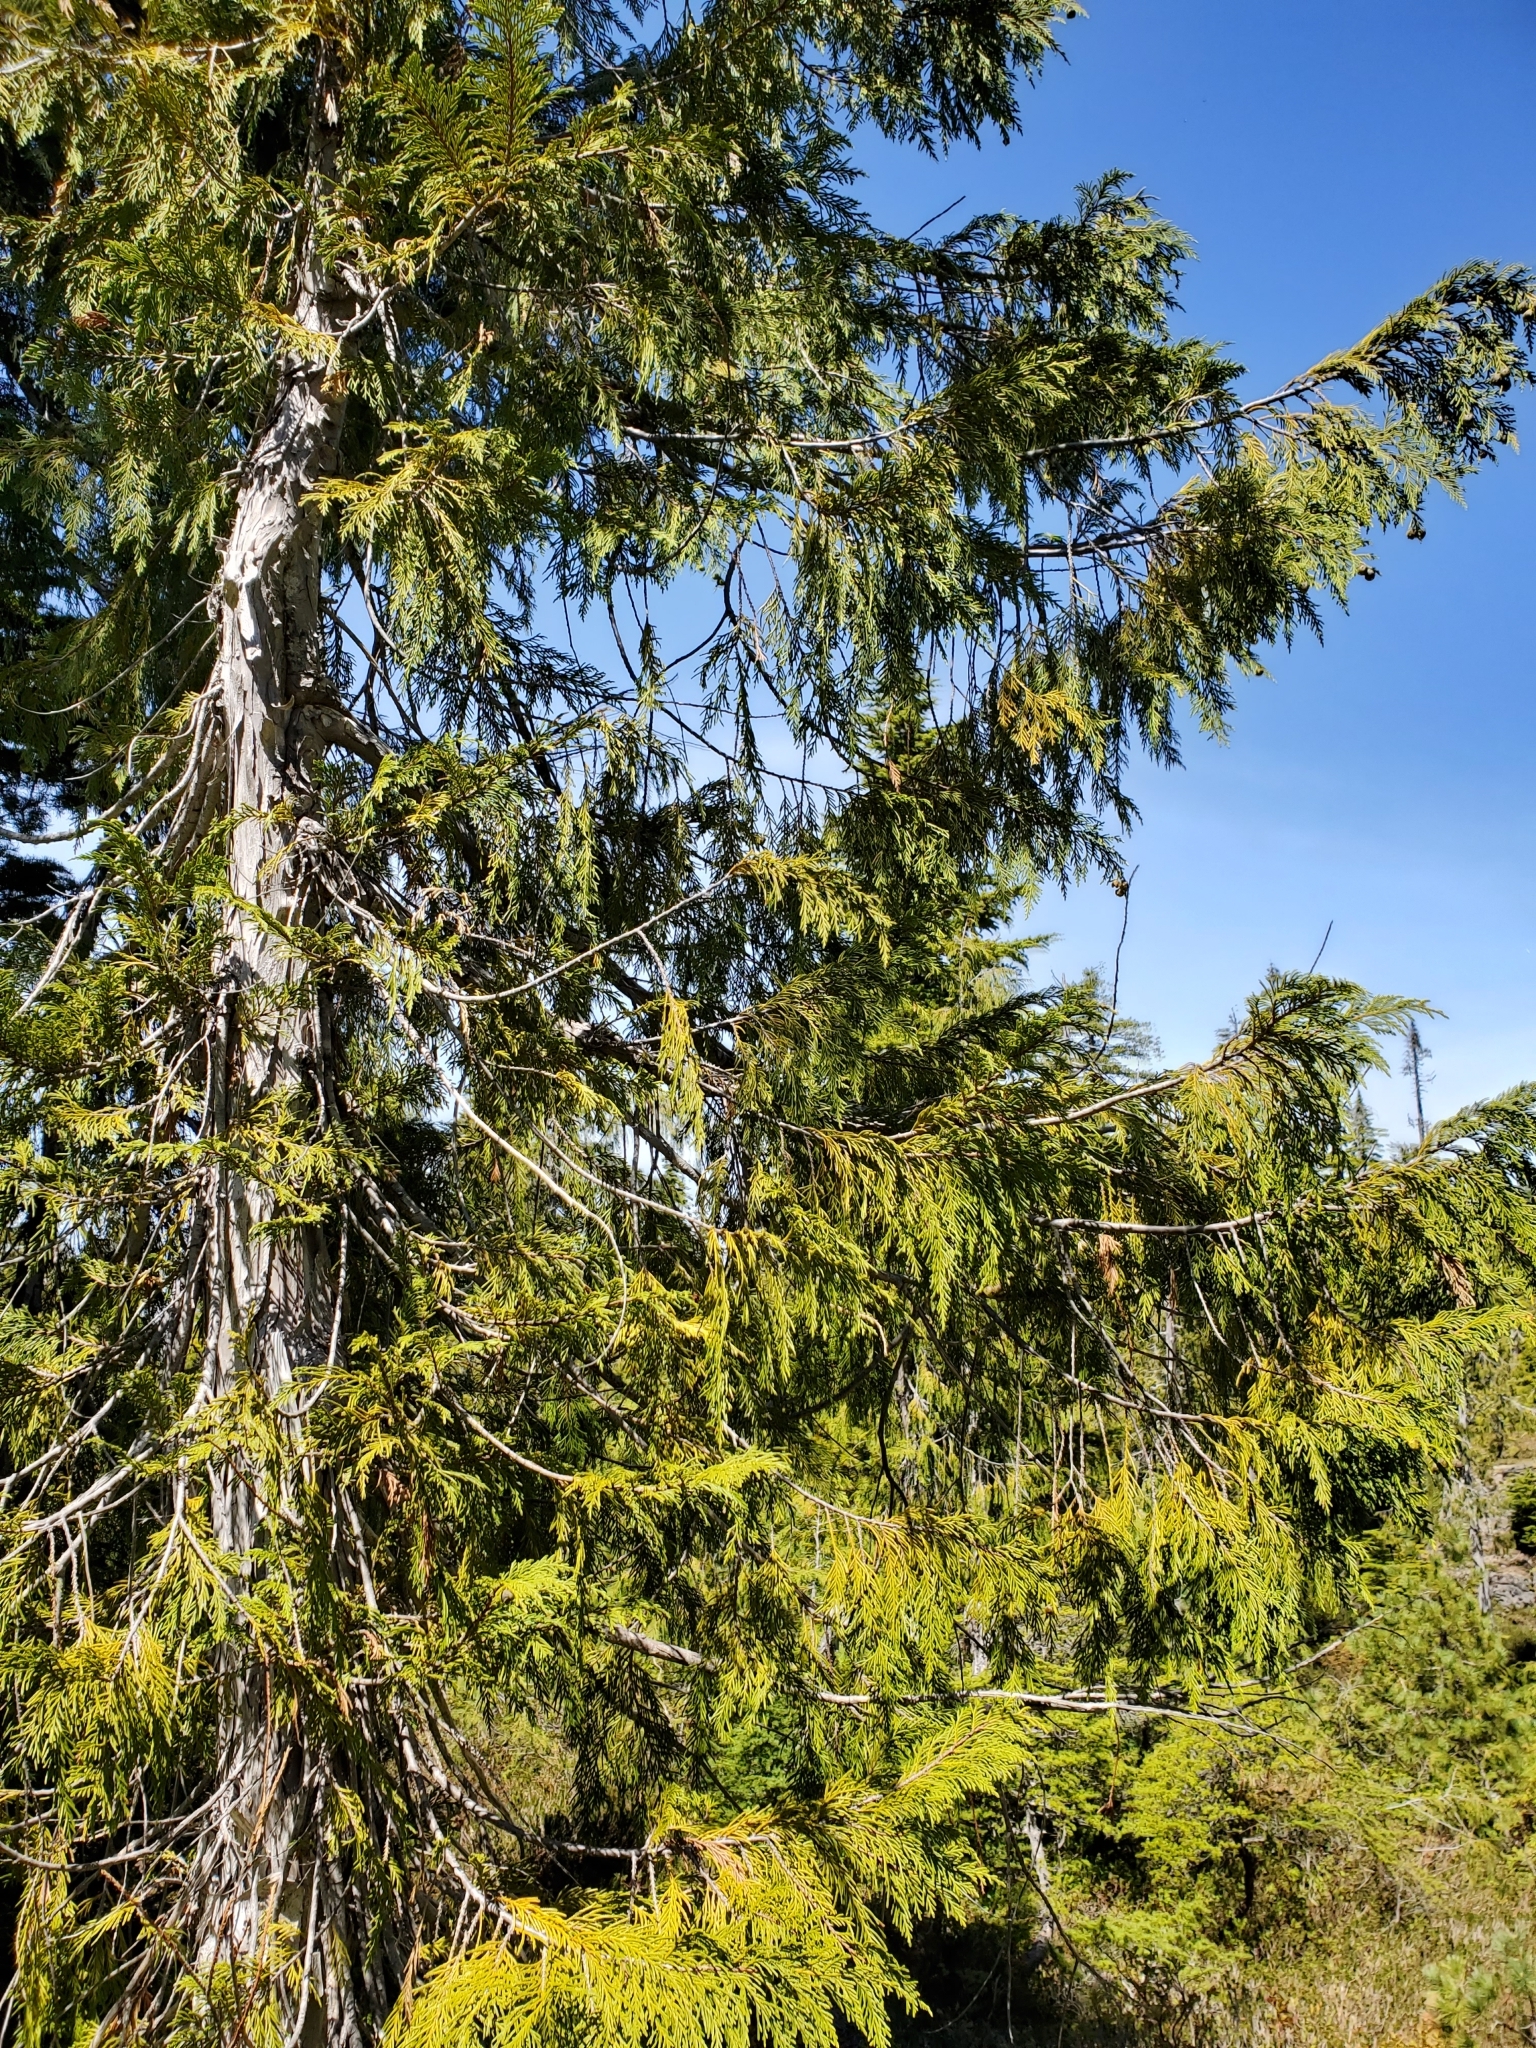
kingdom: Plantae
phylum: Tracheophyta
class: Pinopsida
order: Pinales
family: Cupressaceae
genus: Xanthocyparis
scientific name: Xanthocyparis nootkatensis
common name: Nootka cypress
